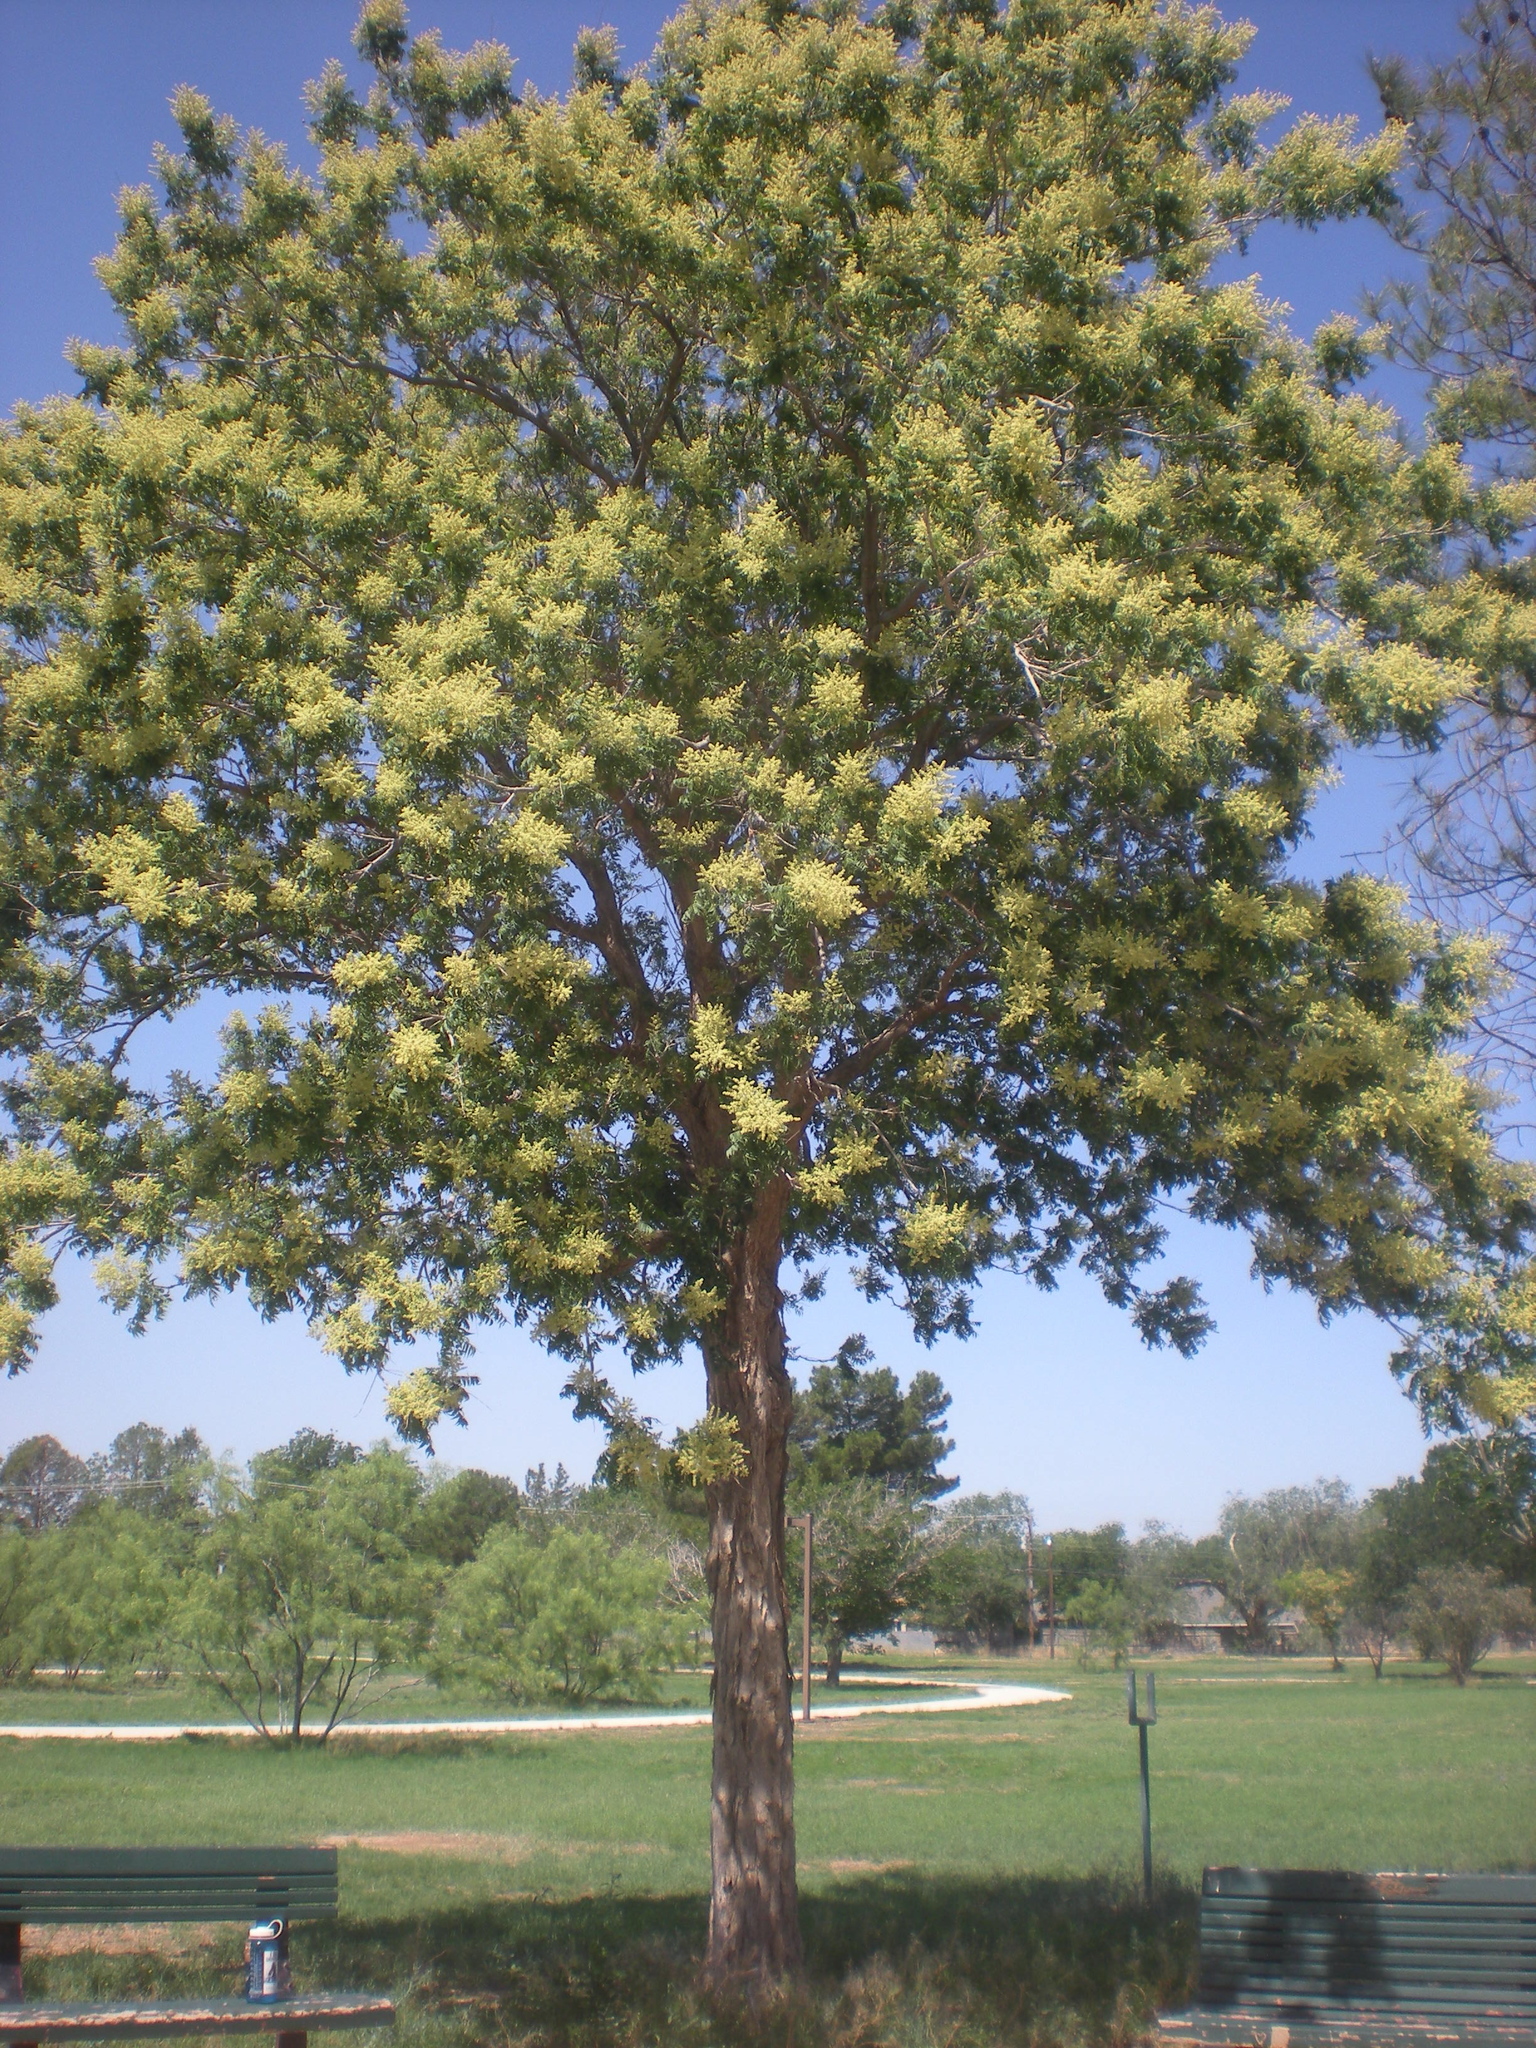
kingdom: Plantae
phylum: Tracheophyta
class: Magnoliopsida
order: Sapindales
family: Sapindaceae
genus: Sapindus
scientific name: Sapindus drummondii
